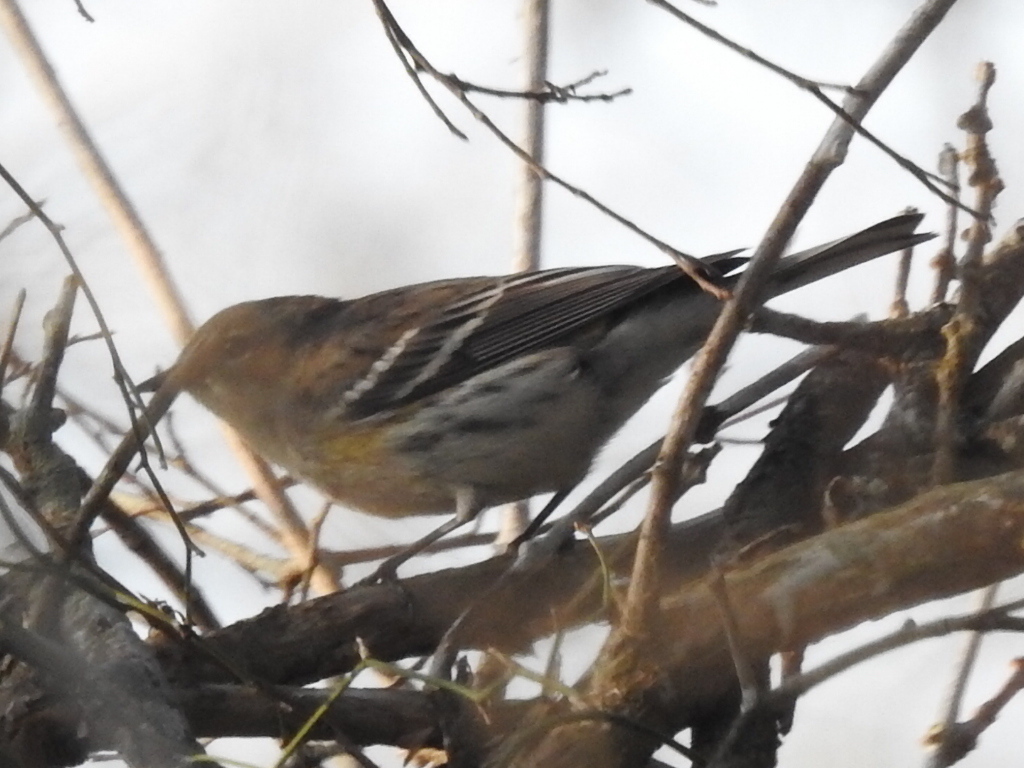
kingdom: Animalia
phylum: Chordata
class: Aves
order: Passeriformes
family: Parulidae
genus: Setophaga
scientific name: Setophaga coronata
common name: Myrtle warbler
